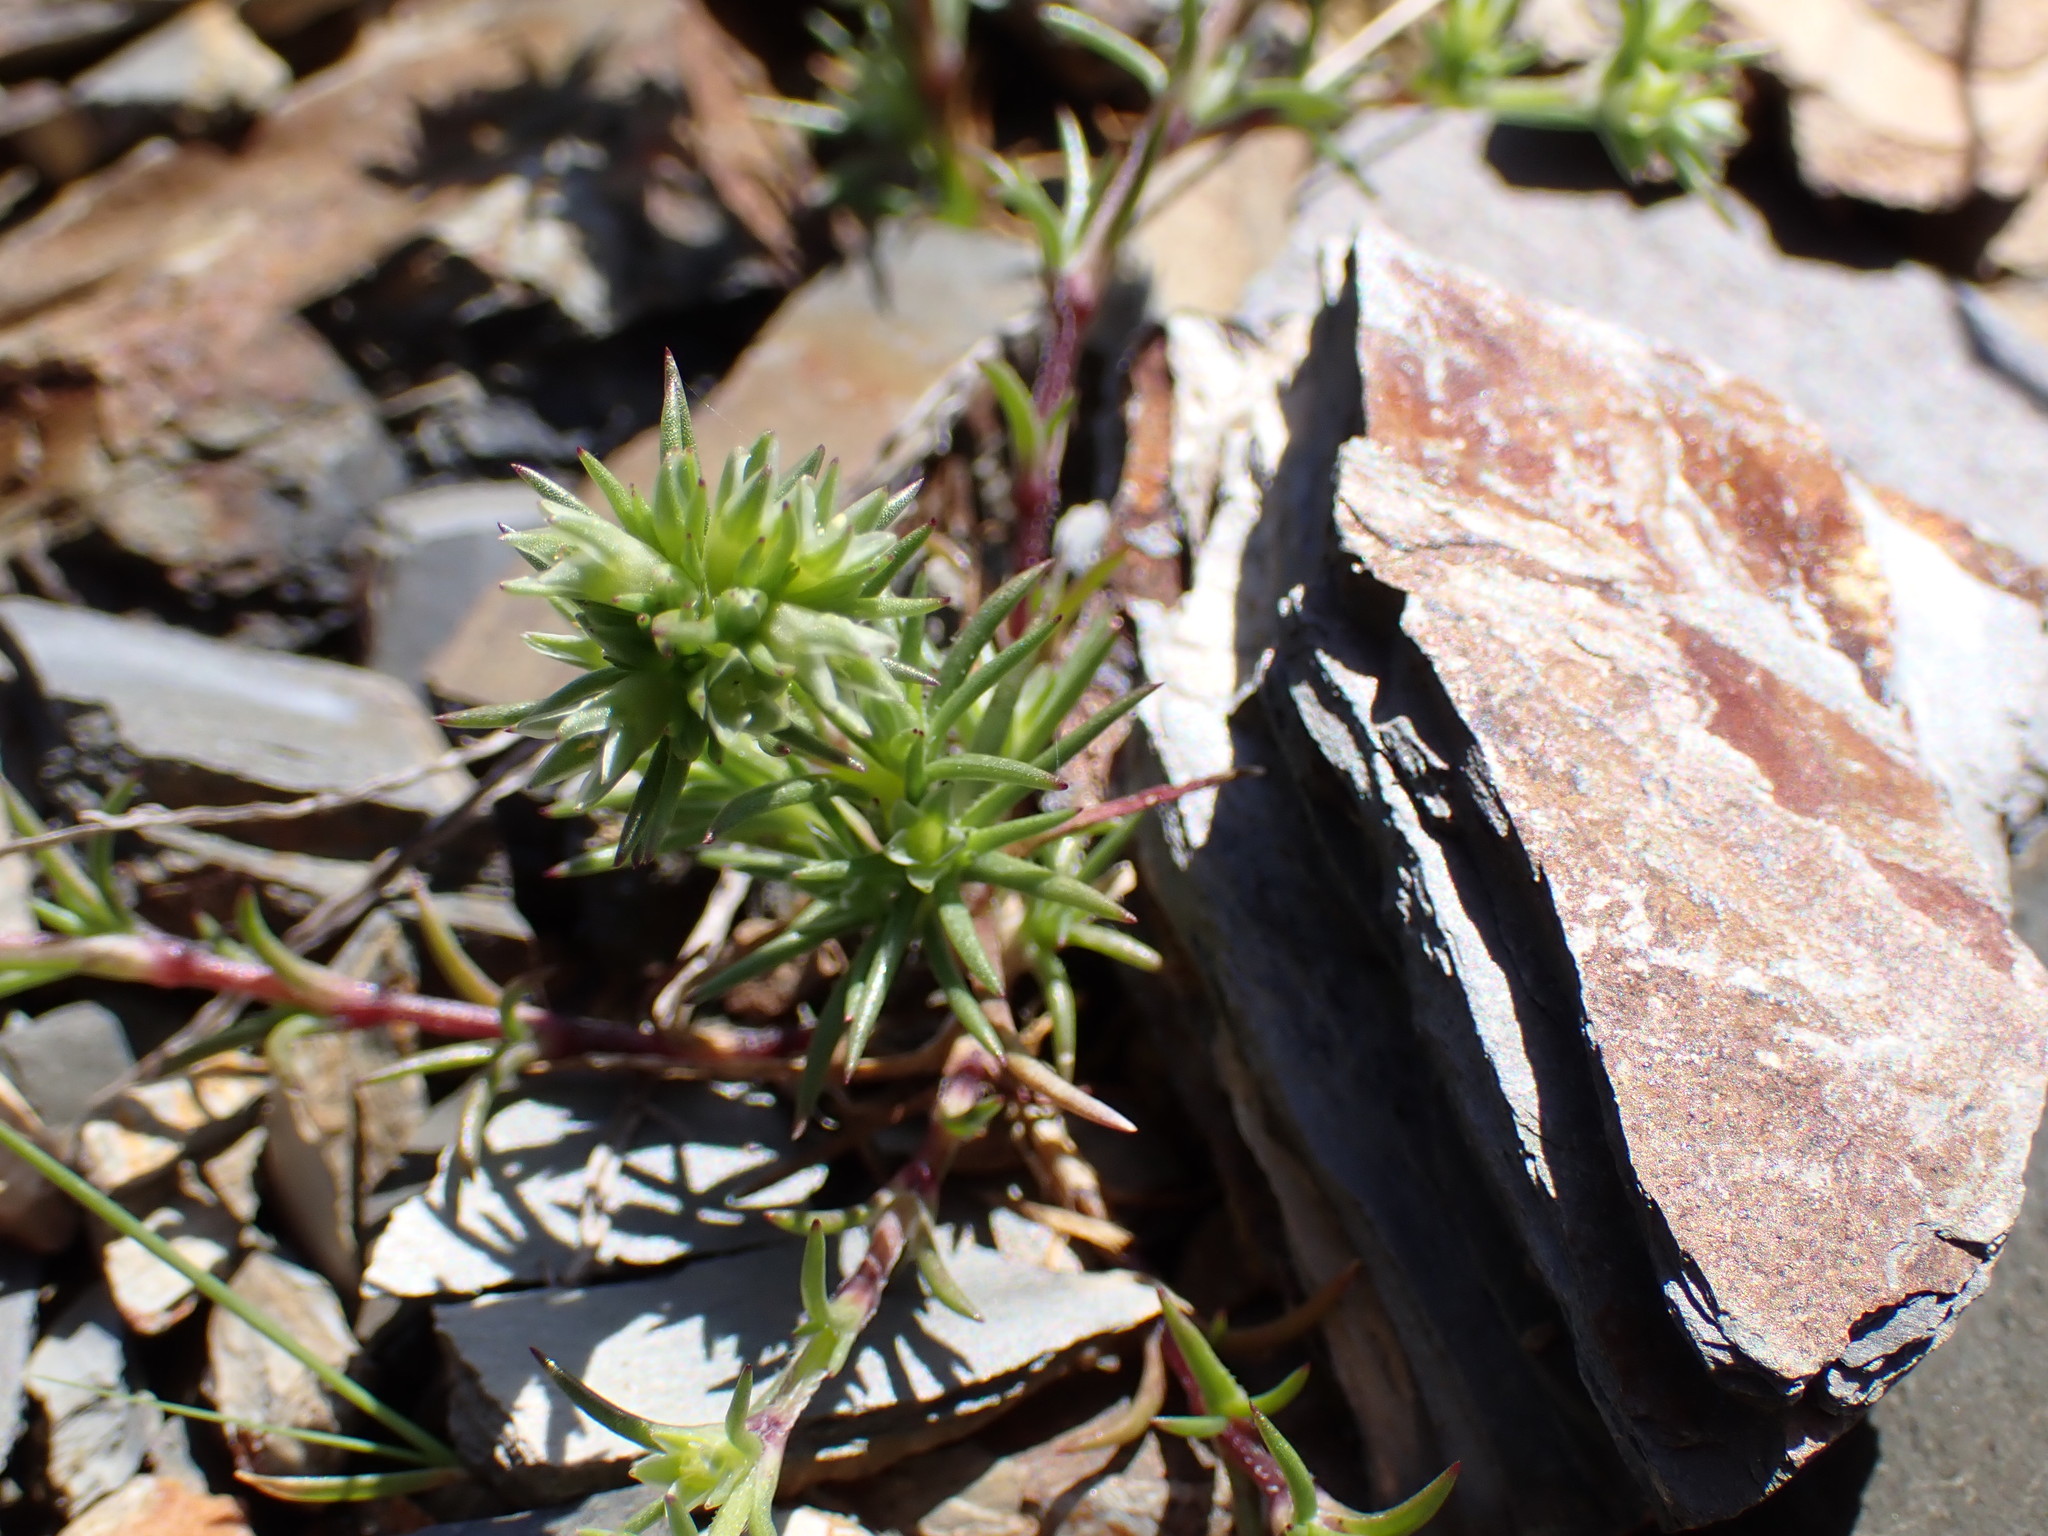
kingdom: Plantae
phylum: Tracheophyta
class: Magnoliopsida
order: Caryophyllales
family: Caryophyllaceae
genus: Scleranthus
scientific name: Scleranthus annuus
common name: Annual knawel
